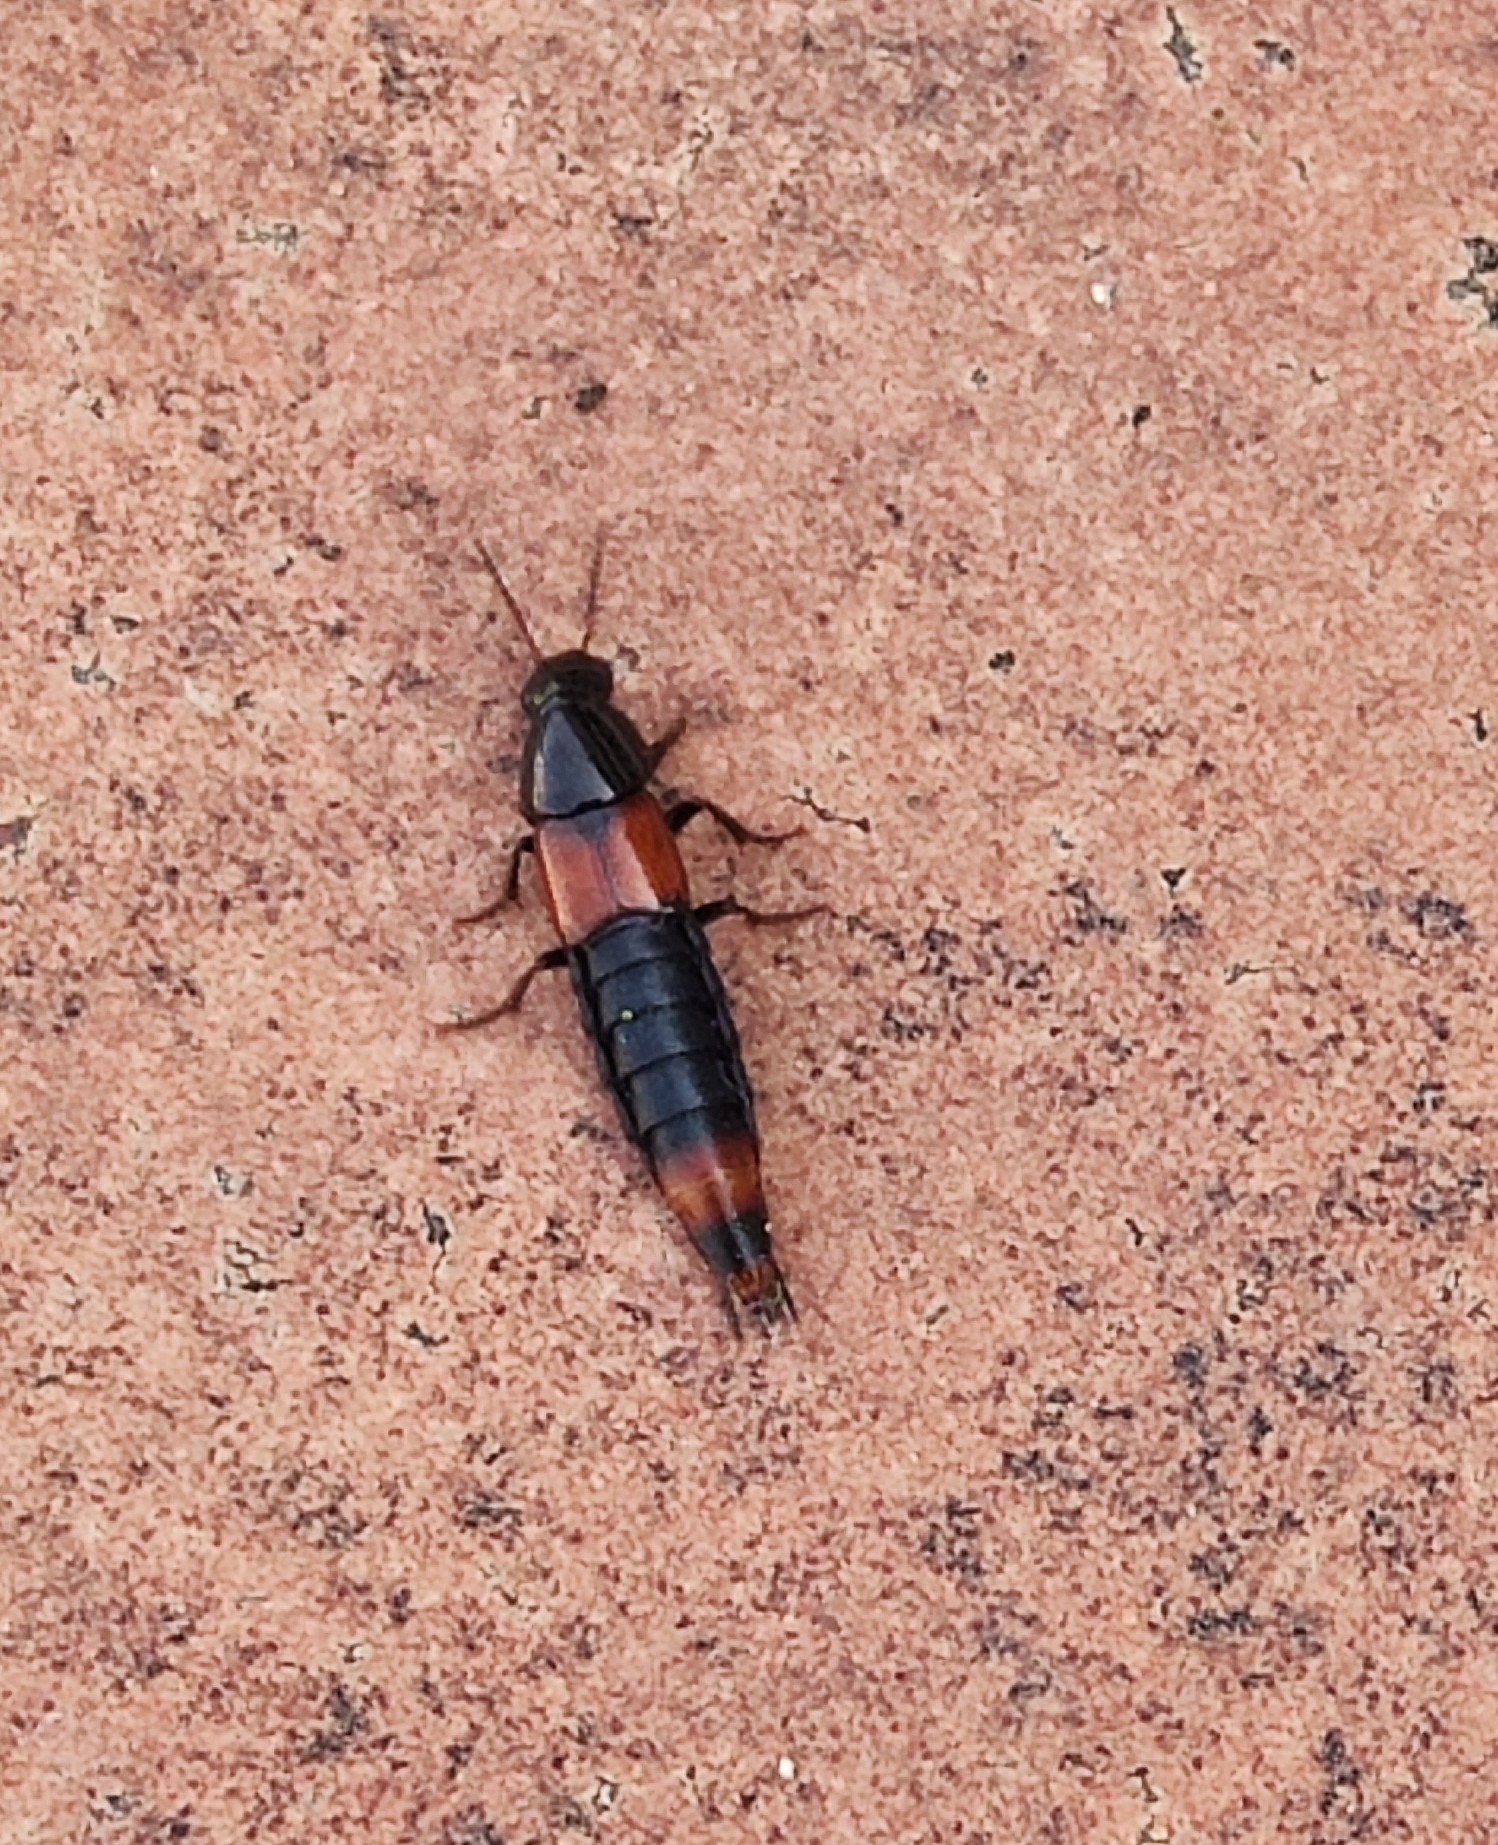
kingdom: Animalia
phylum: Arthropoda
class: Insecta
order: Coleoptera
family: Staphylinidae
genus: Astrapaeus
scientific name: Astrapaeus ulmi
